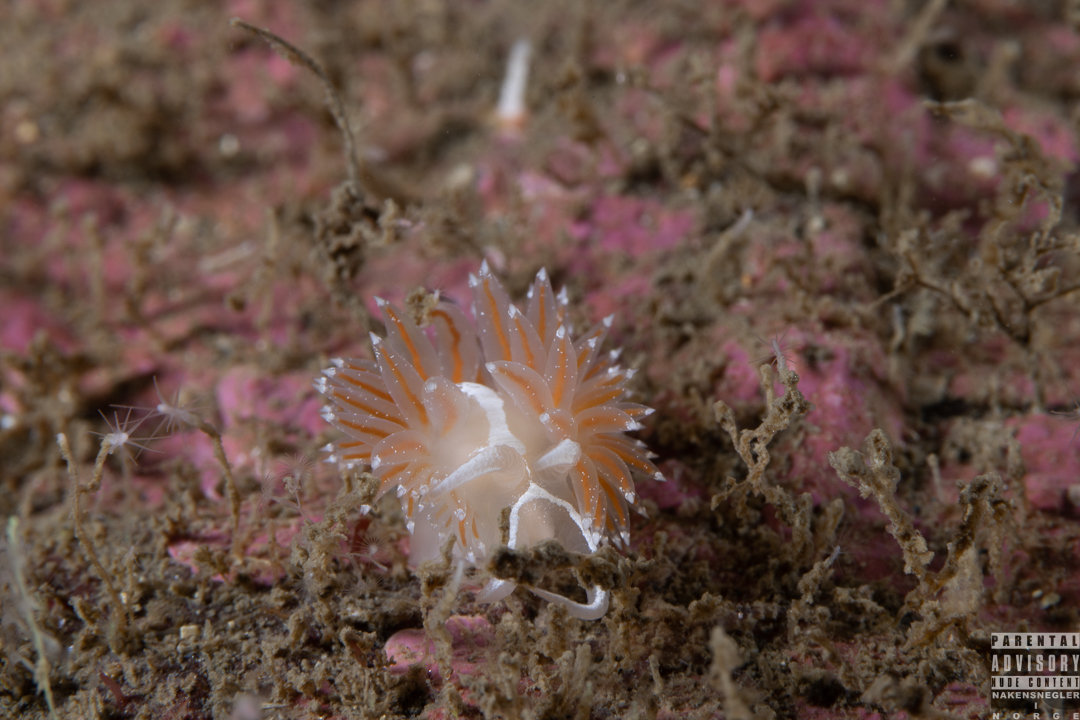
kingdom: Animalia
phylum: Mollusca
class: Gastropoda
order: Nudibranchia
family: Coryphellidae
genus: Coryphella
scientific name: Coryphella monicae
